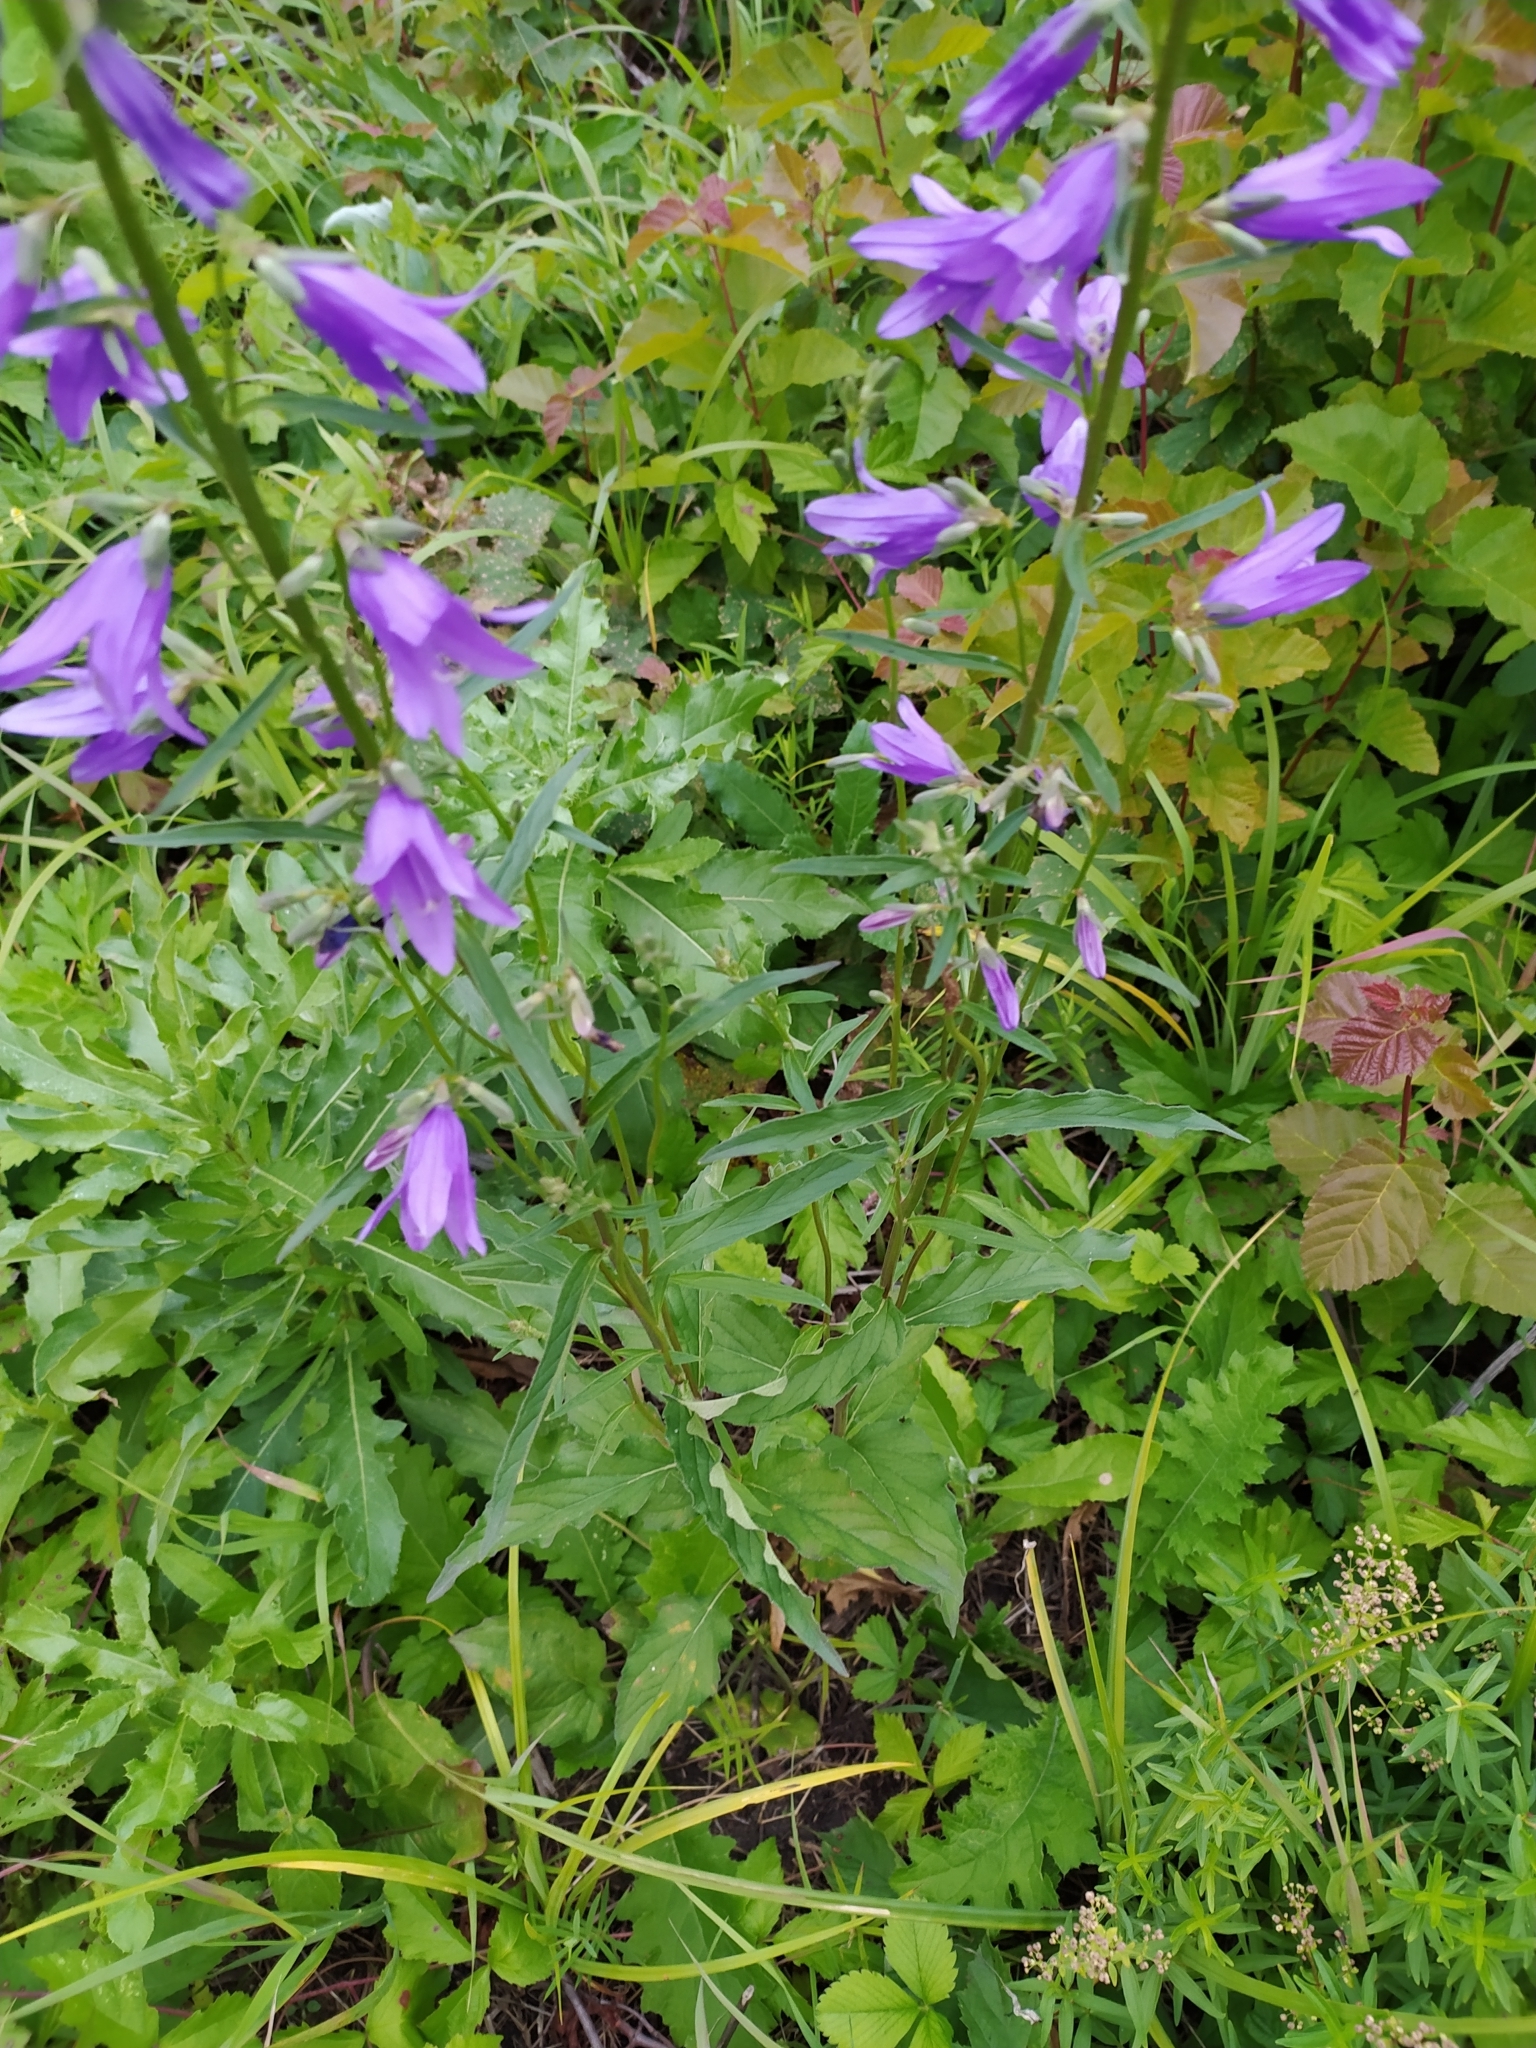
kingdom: Plantae
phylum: Tracheophyta
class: Magnoliopsida
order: Asterales
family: Campanulaceae
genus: Campanula
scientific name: Campanula rapunculoides
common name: Creeping bellflower
